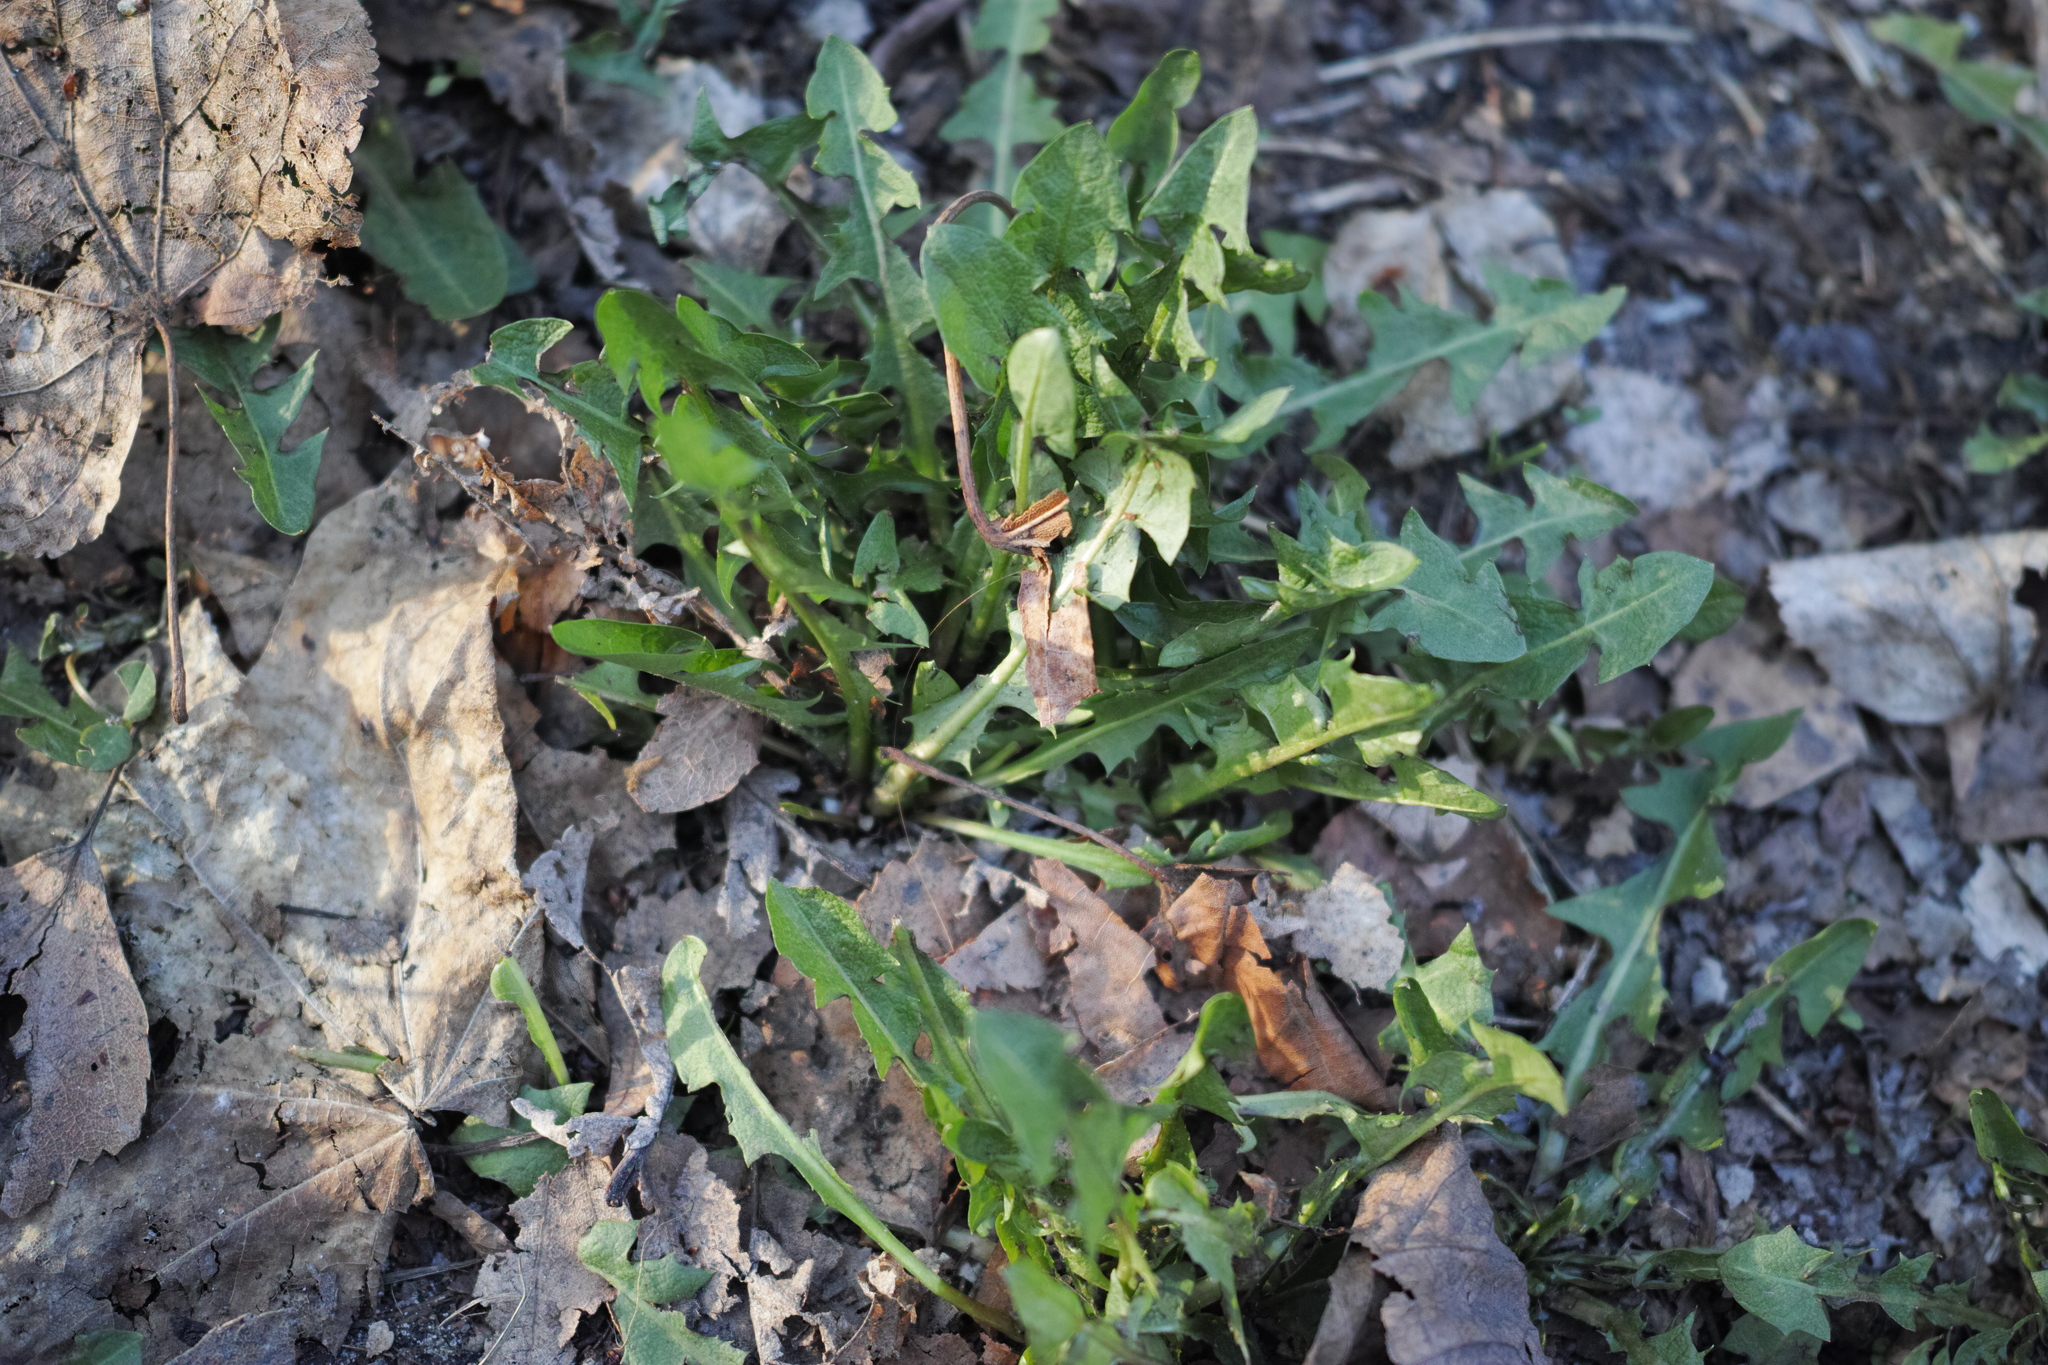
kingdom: Plantae
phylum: Tracheophyta
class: Magnoliopsida
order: Asterales
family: Asteraceae
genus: Taraxacum
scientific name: Taraxacum officinale
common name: Common dandelion
